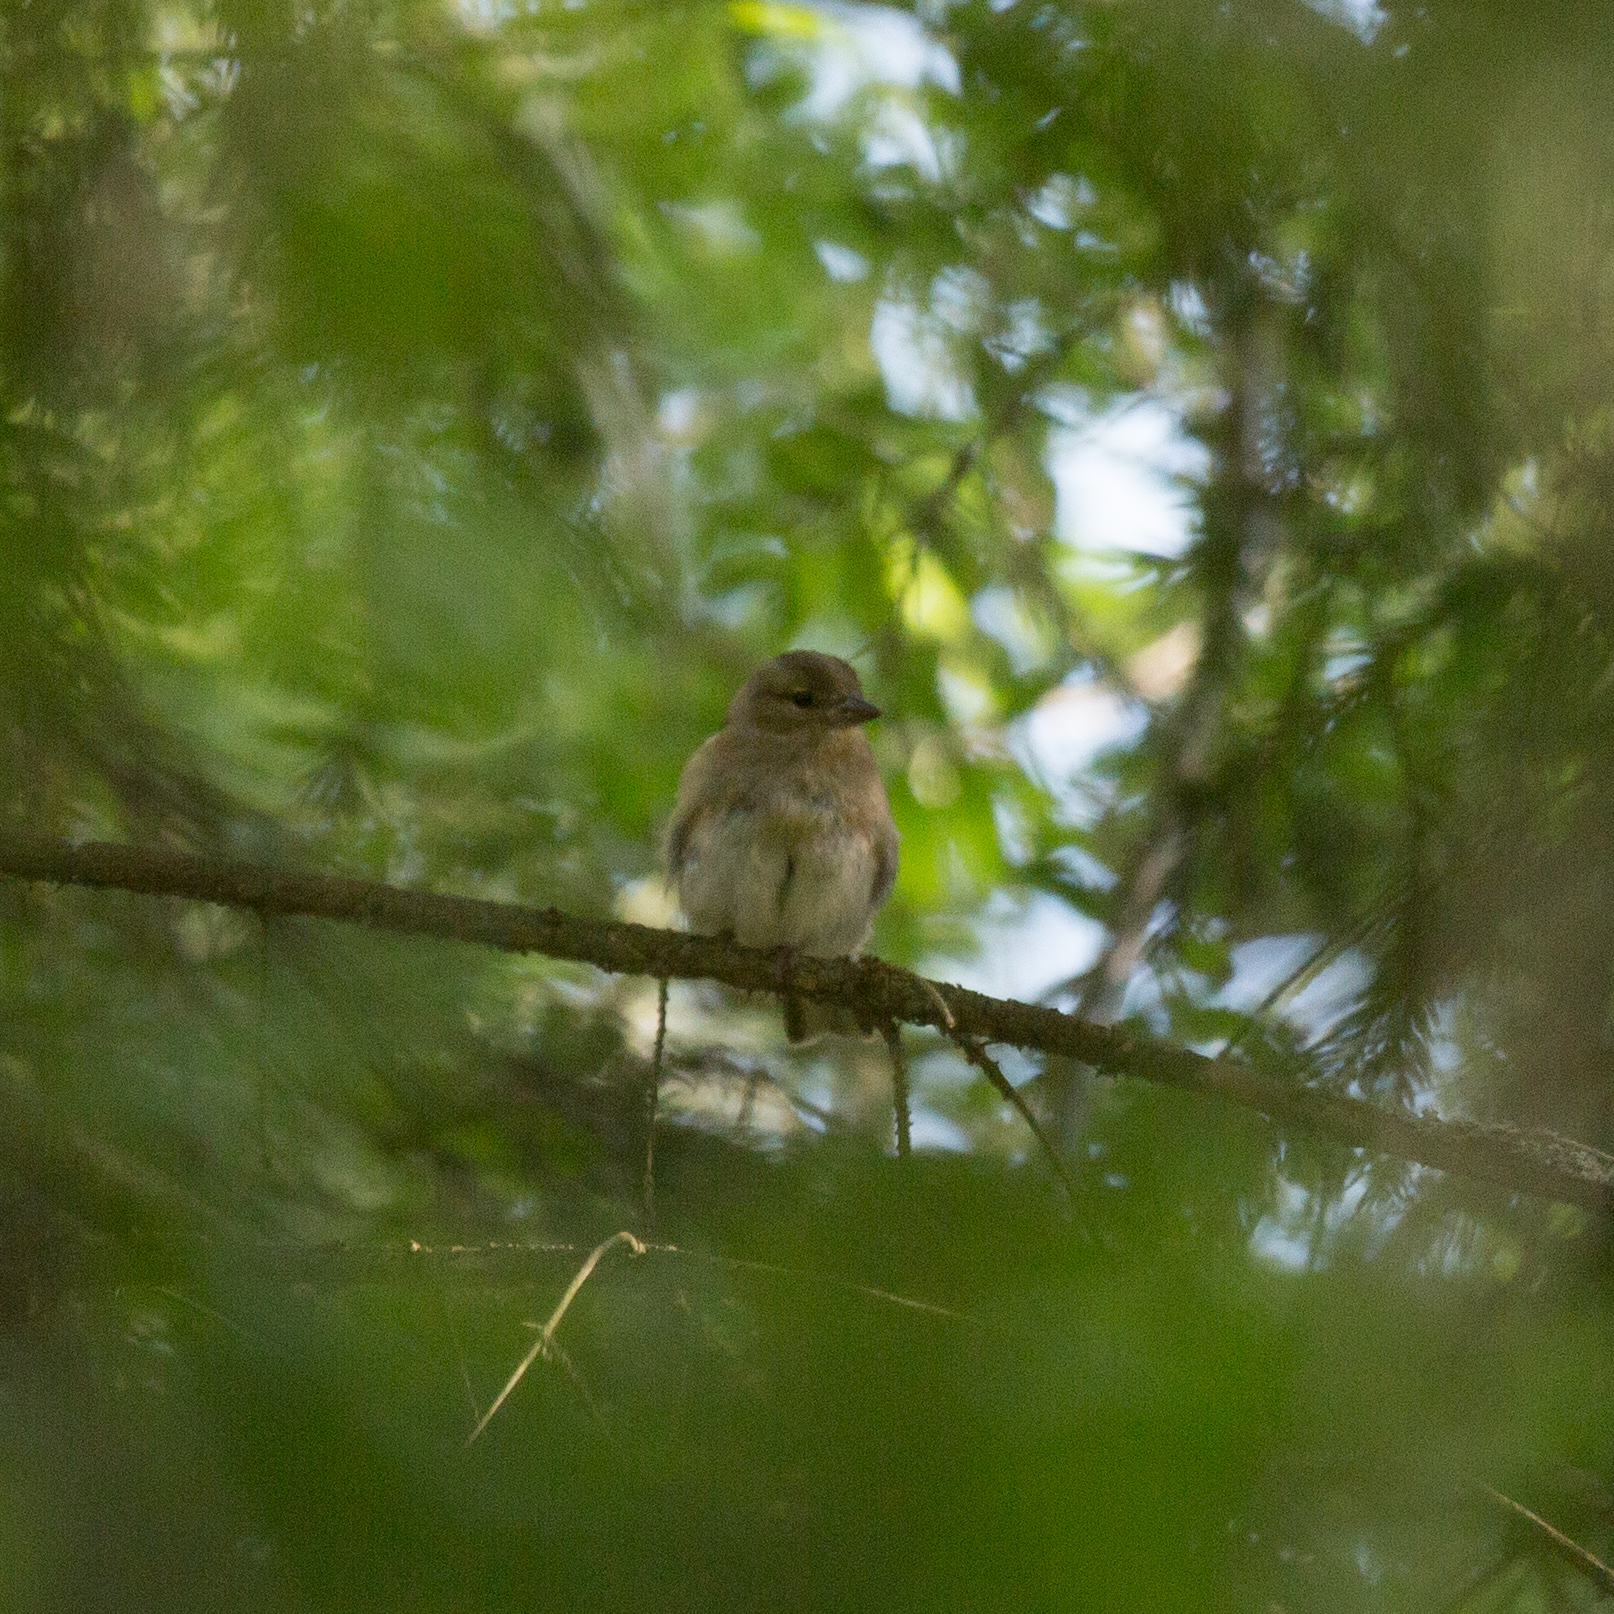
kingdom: Animalia
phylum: Chordata
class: Aves
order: Passeriformes
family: Fringillidae
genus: Fringilla
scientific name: Fringilla coelebs
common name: Common chaffinch
